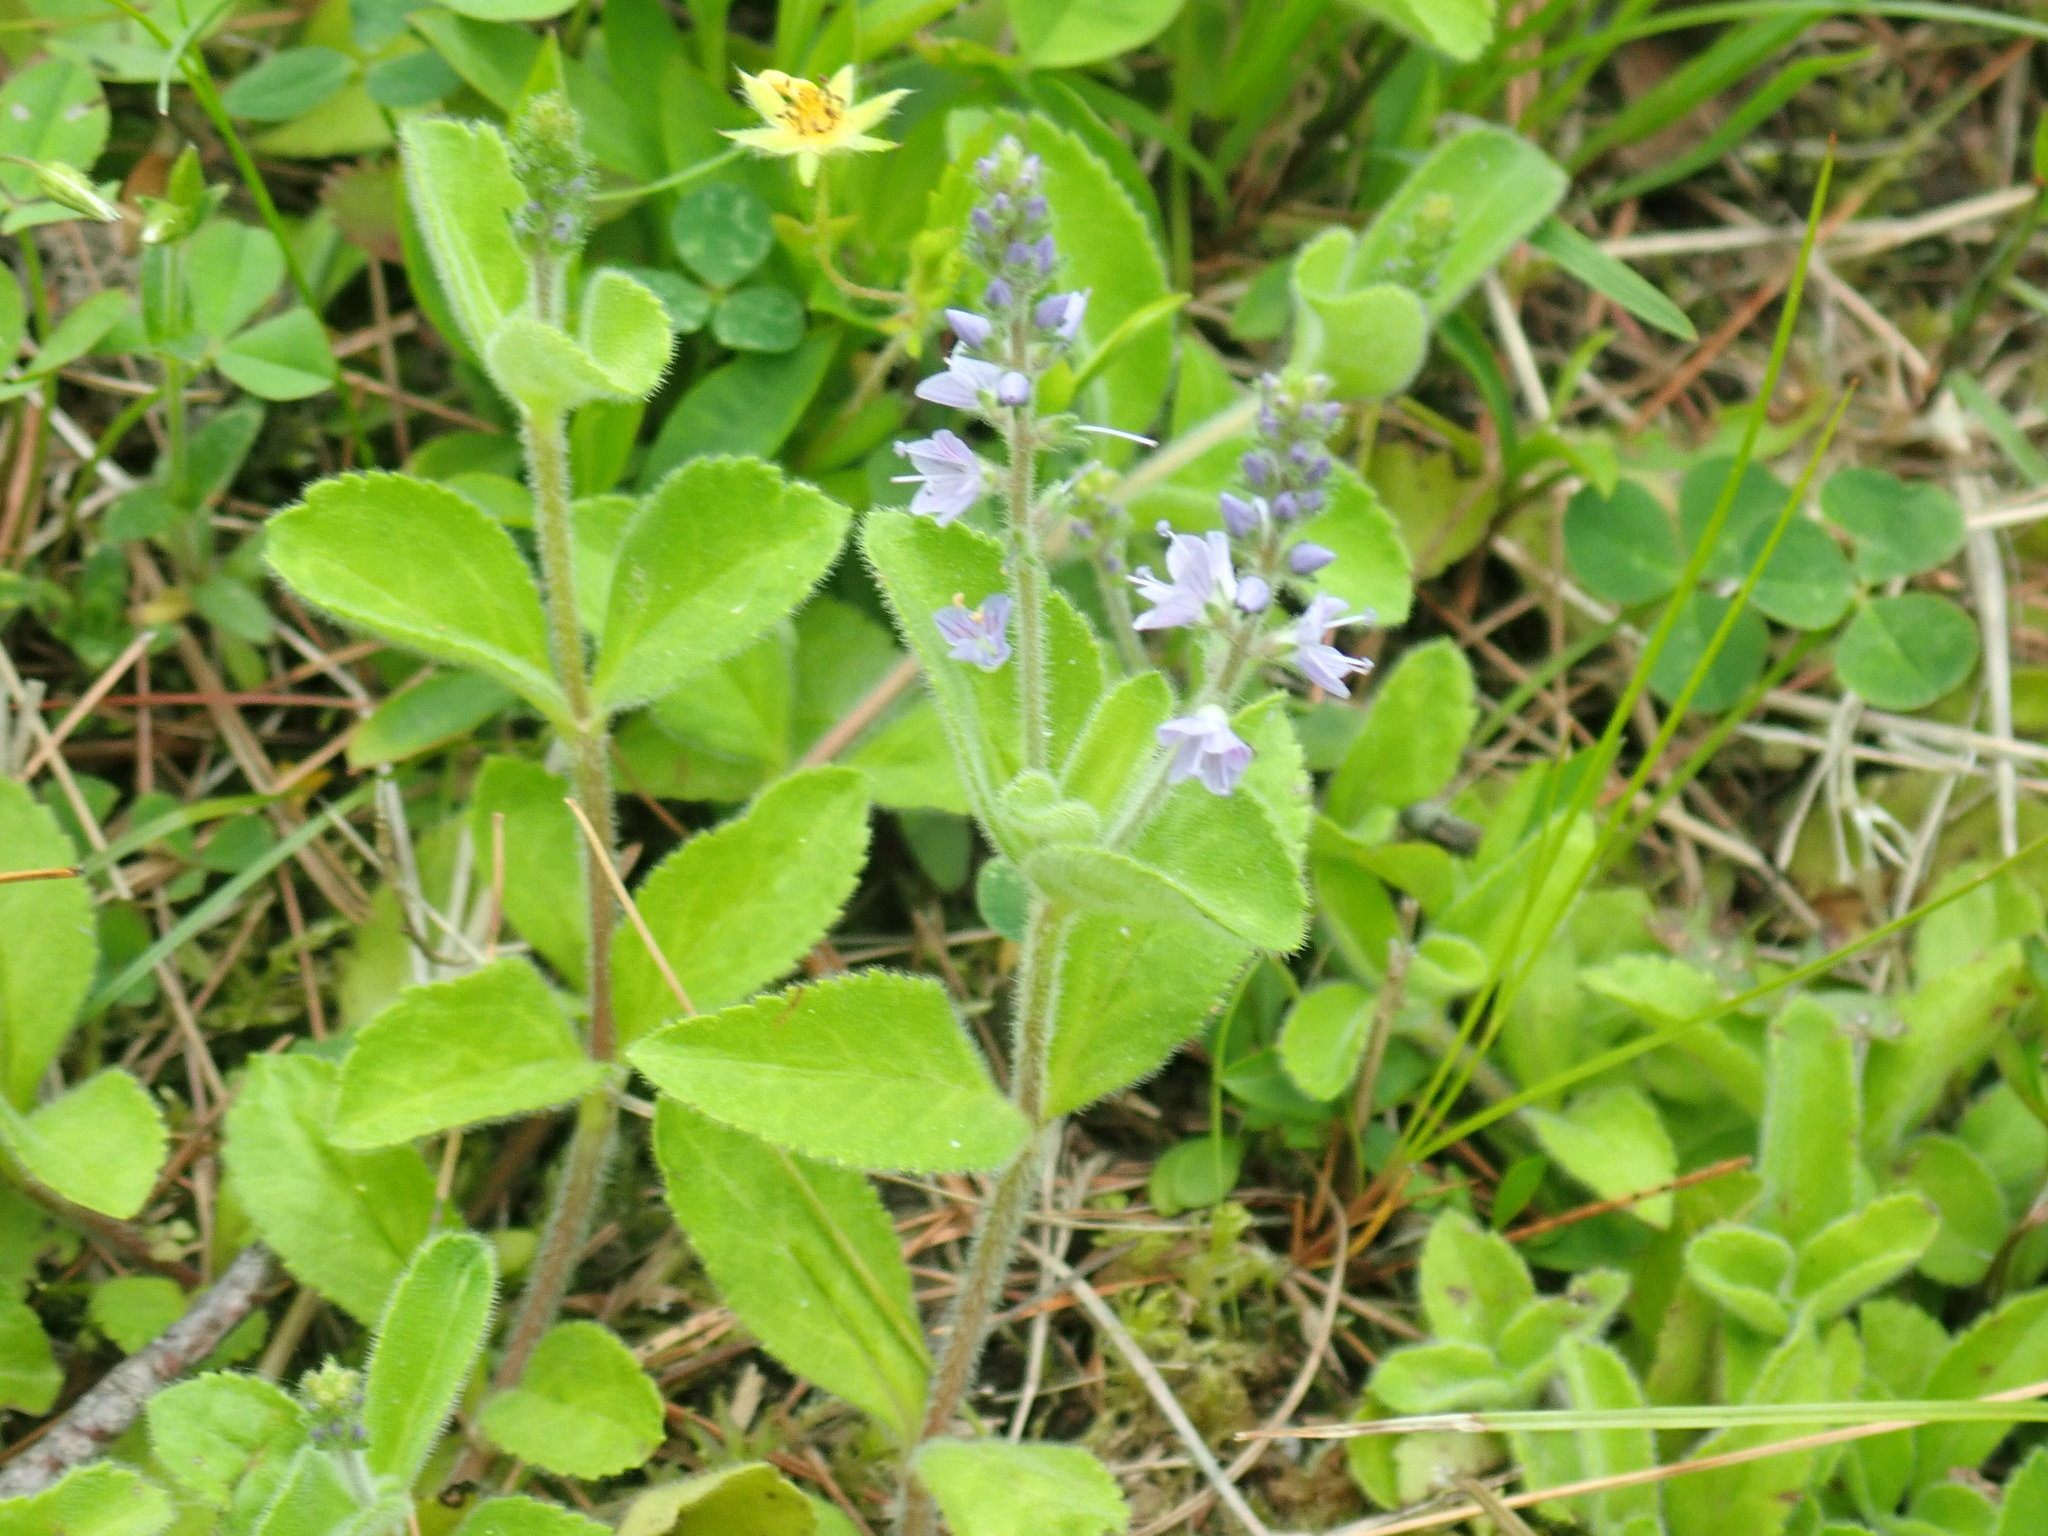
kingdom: Plantae
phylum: Tracheophyta
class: Magnoliopsida
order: Lamiales
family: Plantaginaceae
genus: Veronica
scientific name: Veronica officinalis
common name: Common speedwell
